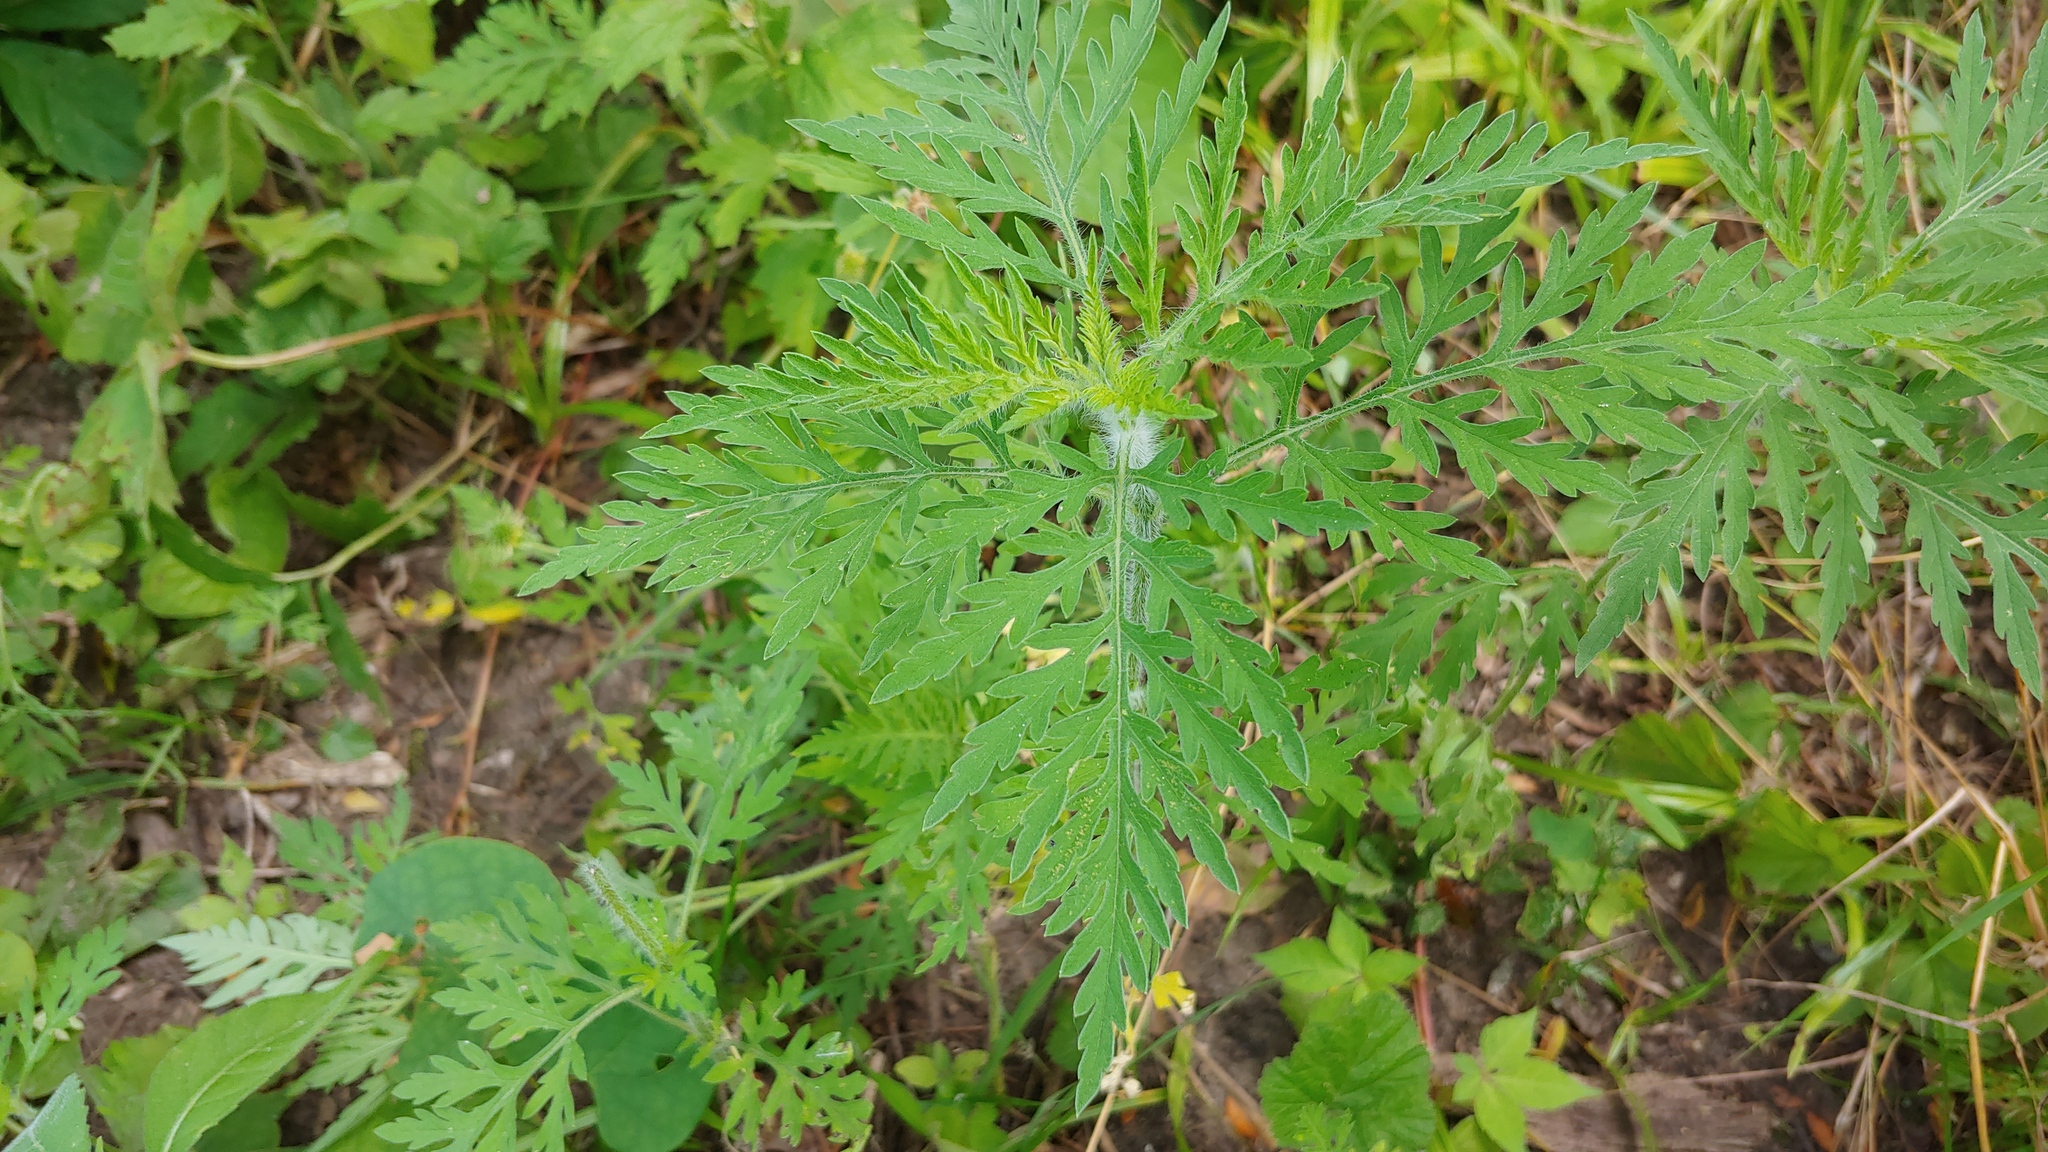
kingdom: Plantae
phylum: Tracheophyta
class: Magnoliopsida
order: Asterales
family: Asteraceae
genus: Ambrosia
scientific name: Ambrosia artemisiifolia
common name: Annual ragweed
